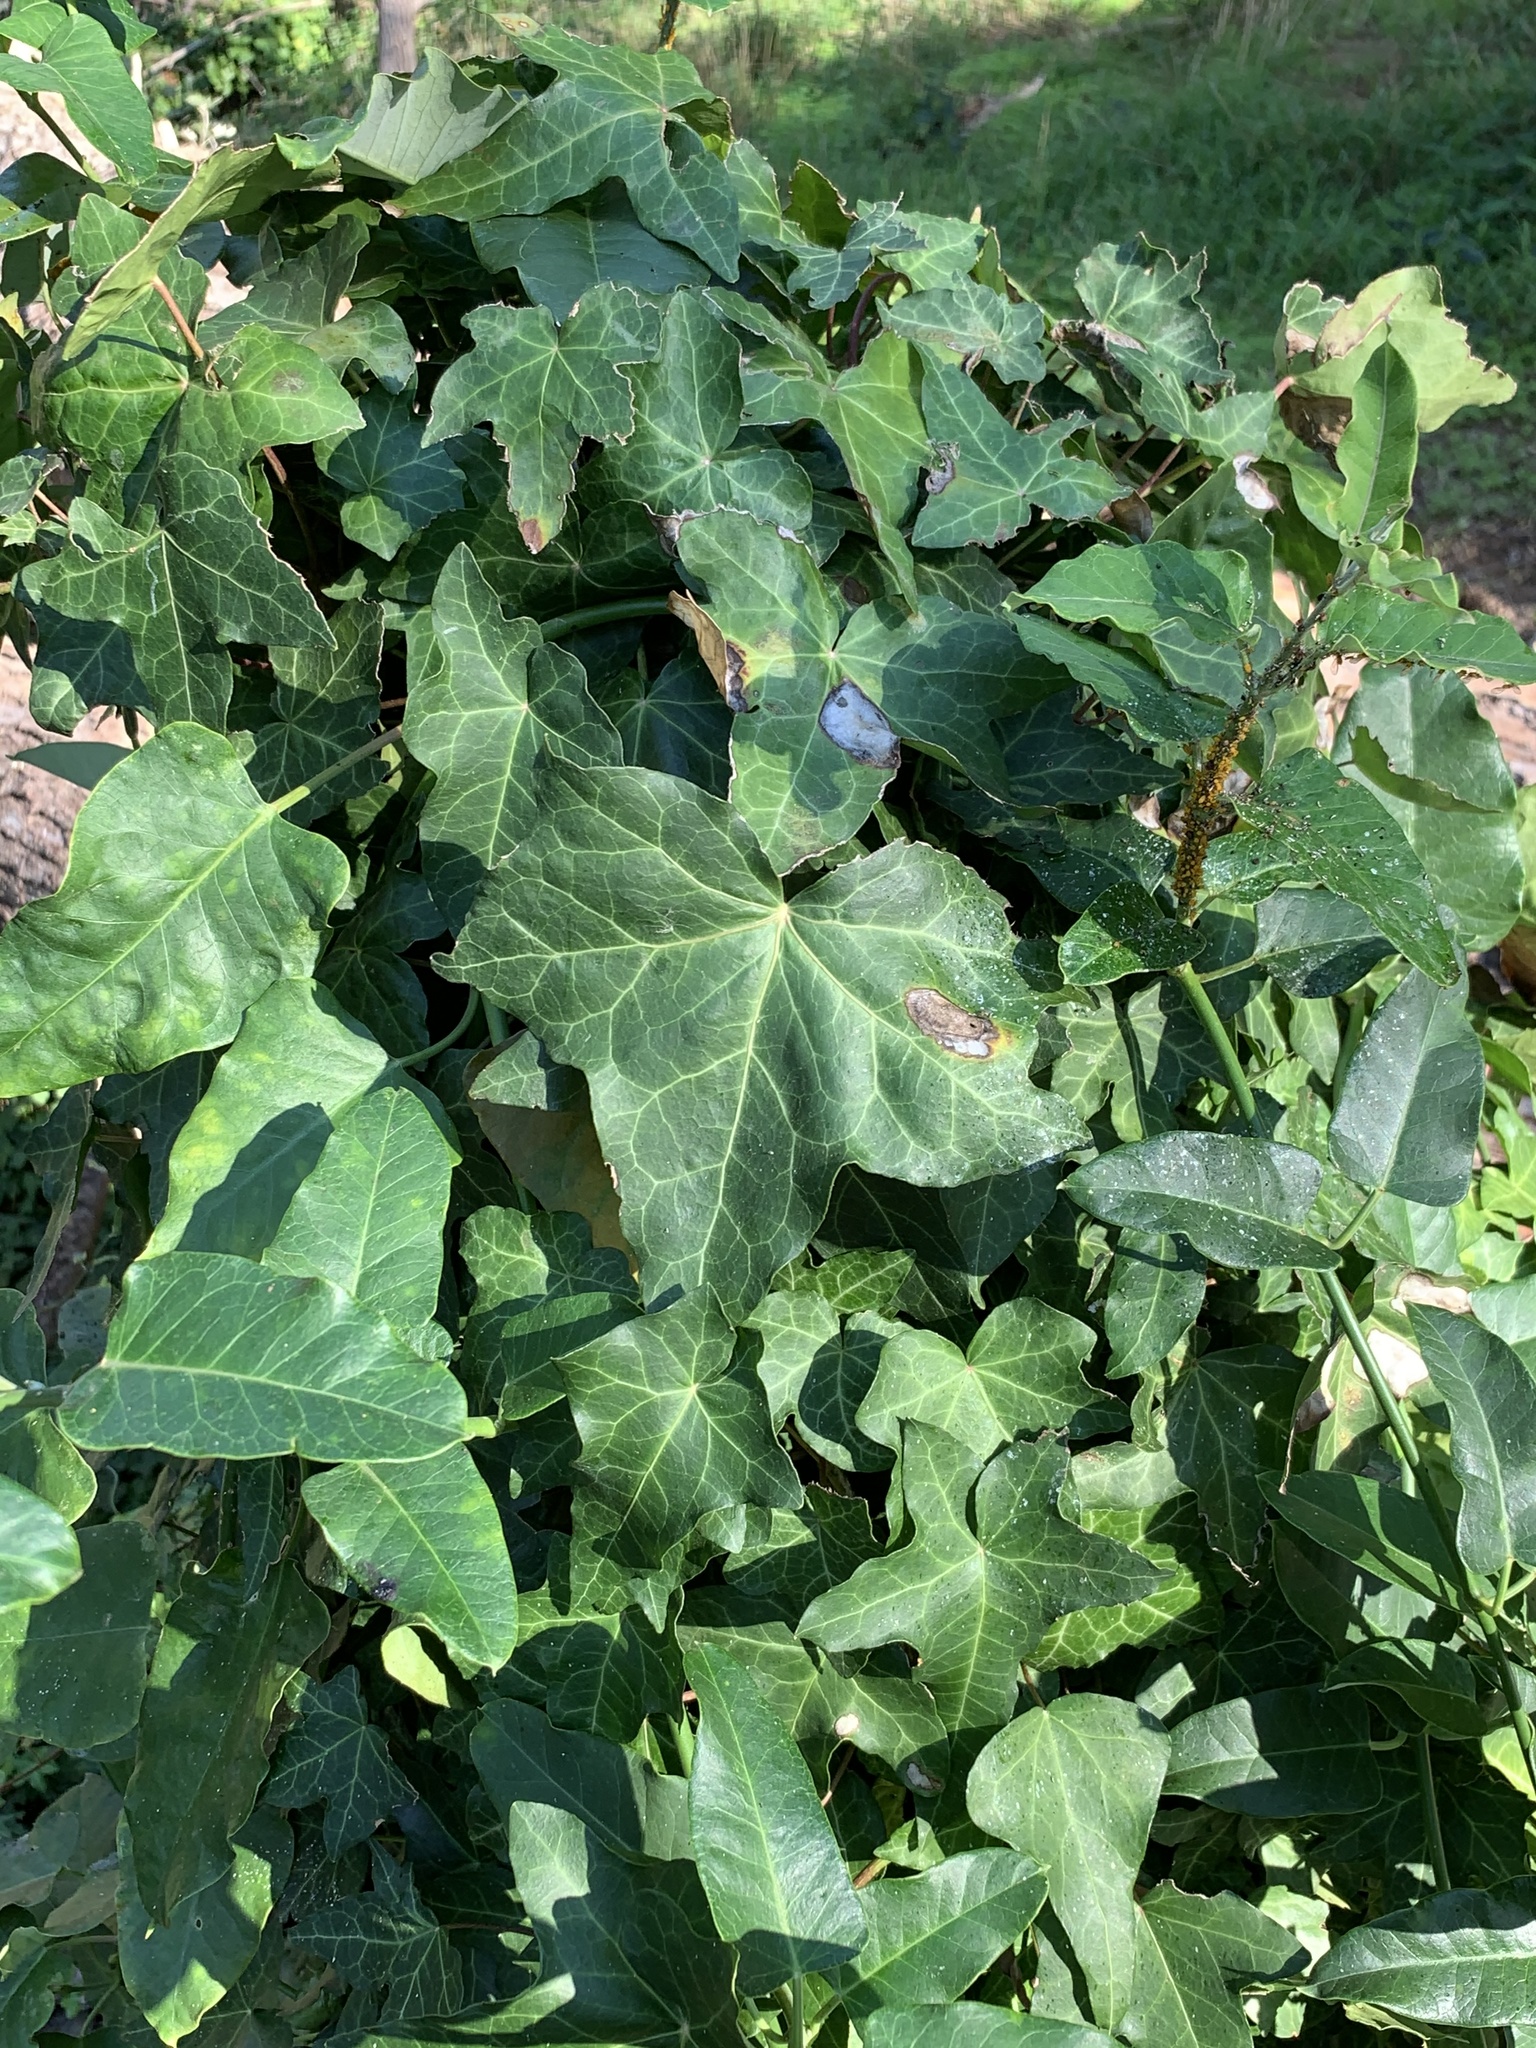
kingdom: Plantae
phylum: Tracheophyta
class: Magnoliopsida
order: Apiales
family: Araliaceae
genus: Hedera
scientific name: Hedera helix
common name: Ivy
